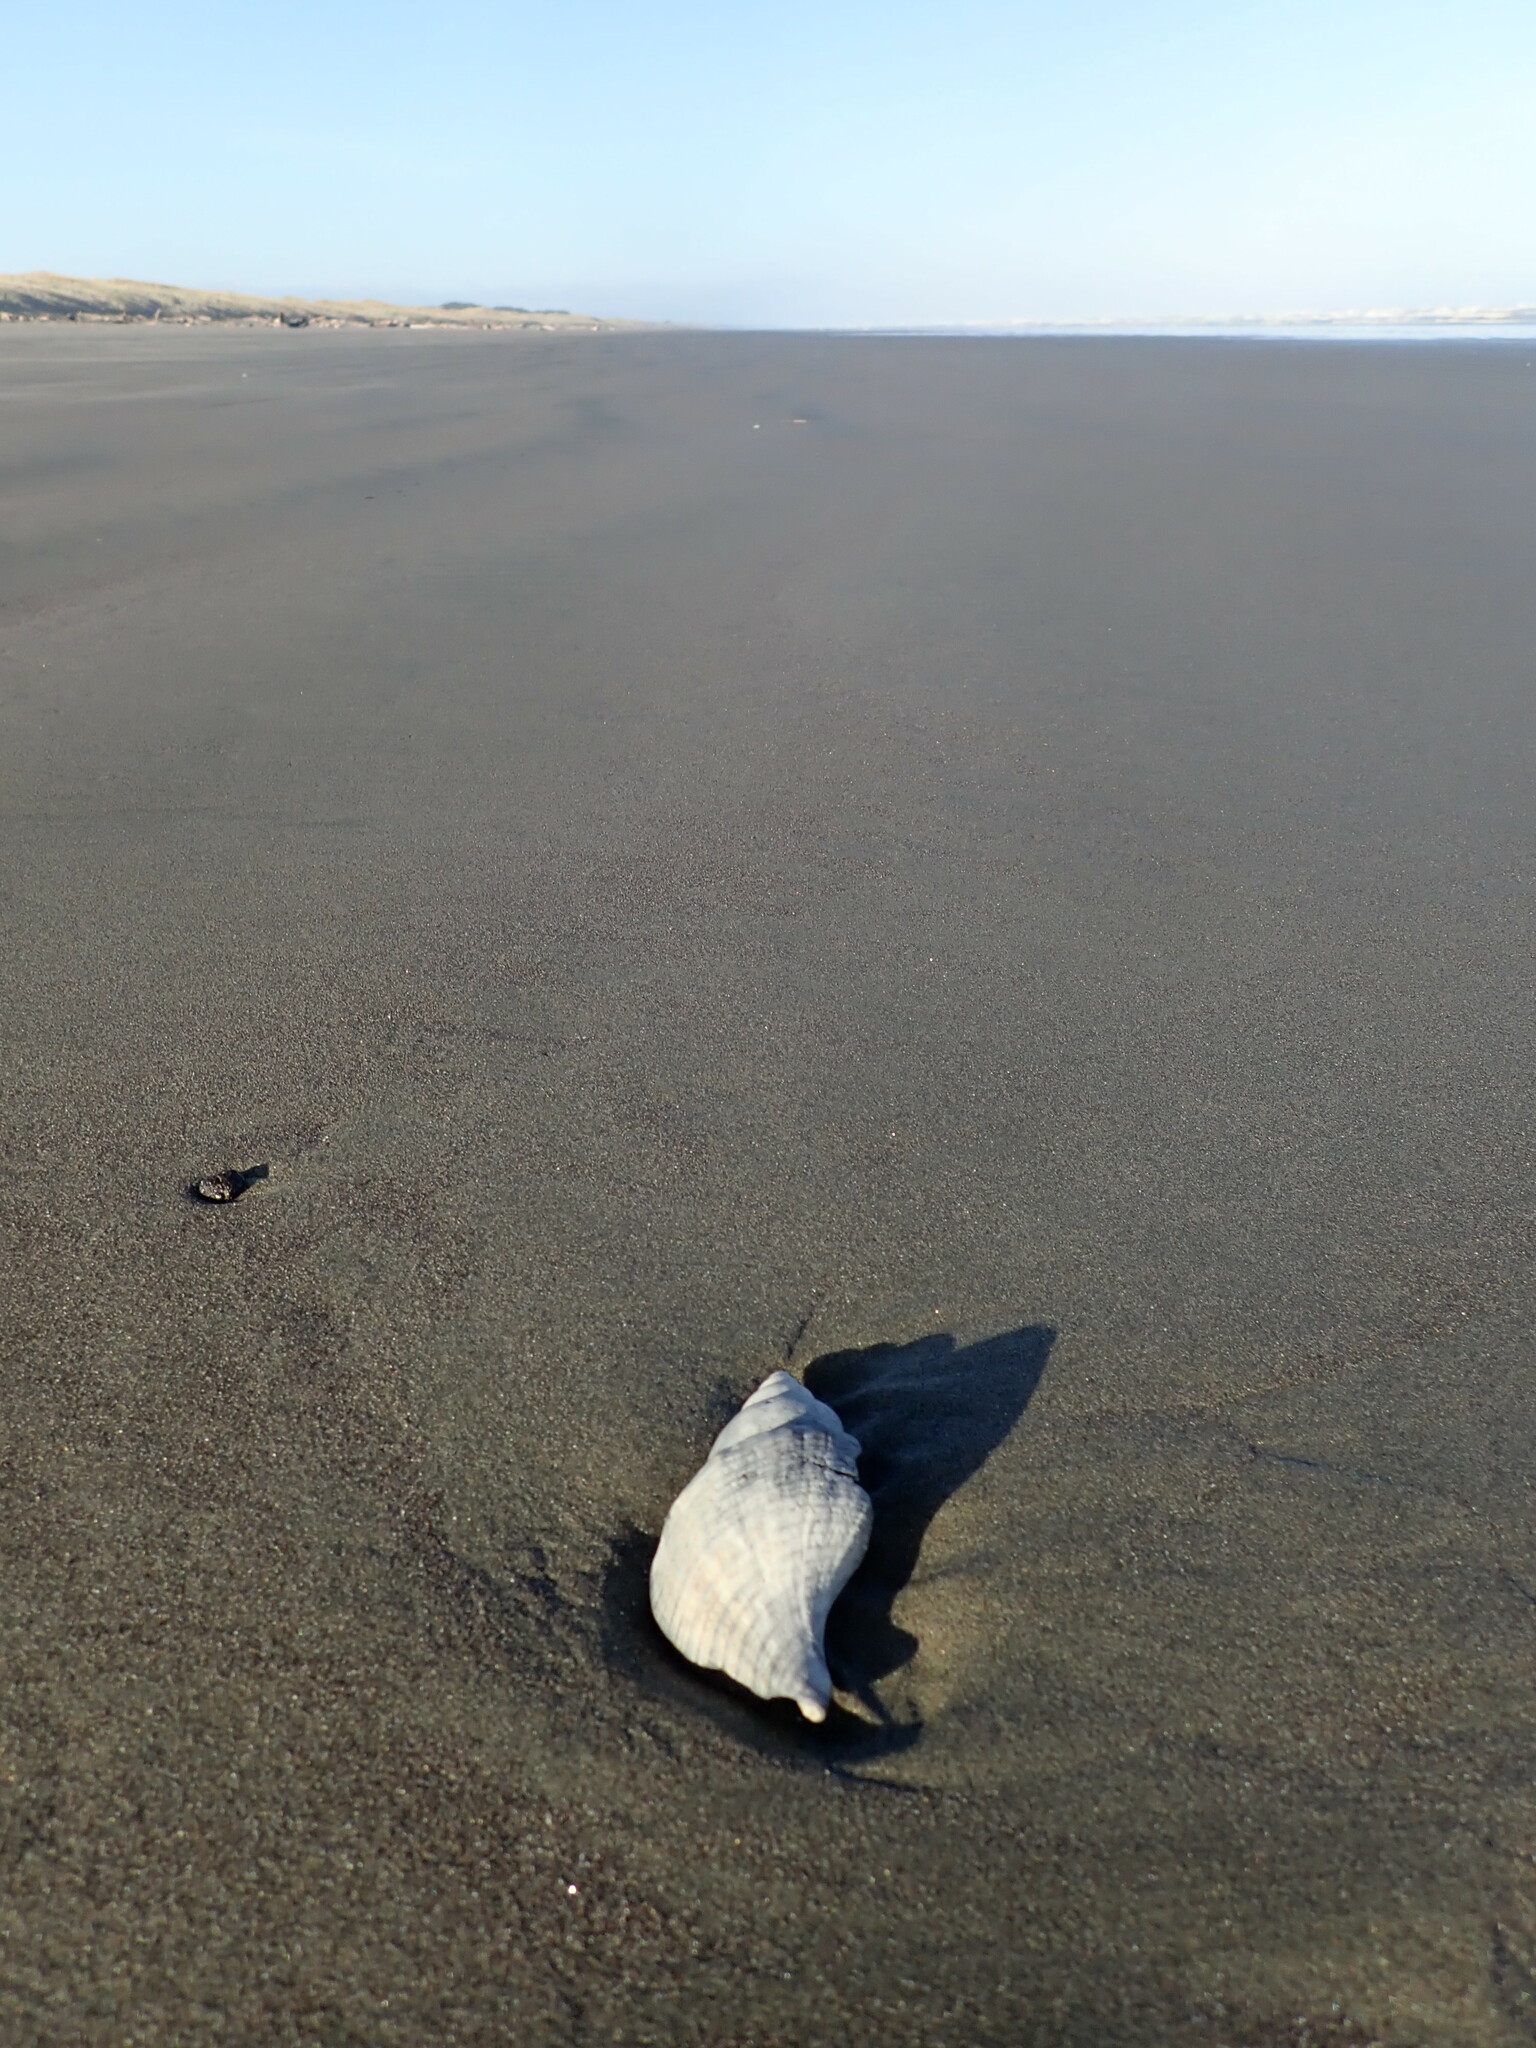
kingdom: Animalia
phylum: Mollusca
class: Gastropoda
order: Neogastropoda
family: Austrosiphonidae
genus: Penion
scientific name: Penion sulcatus
